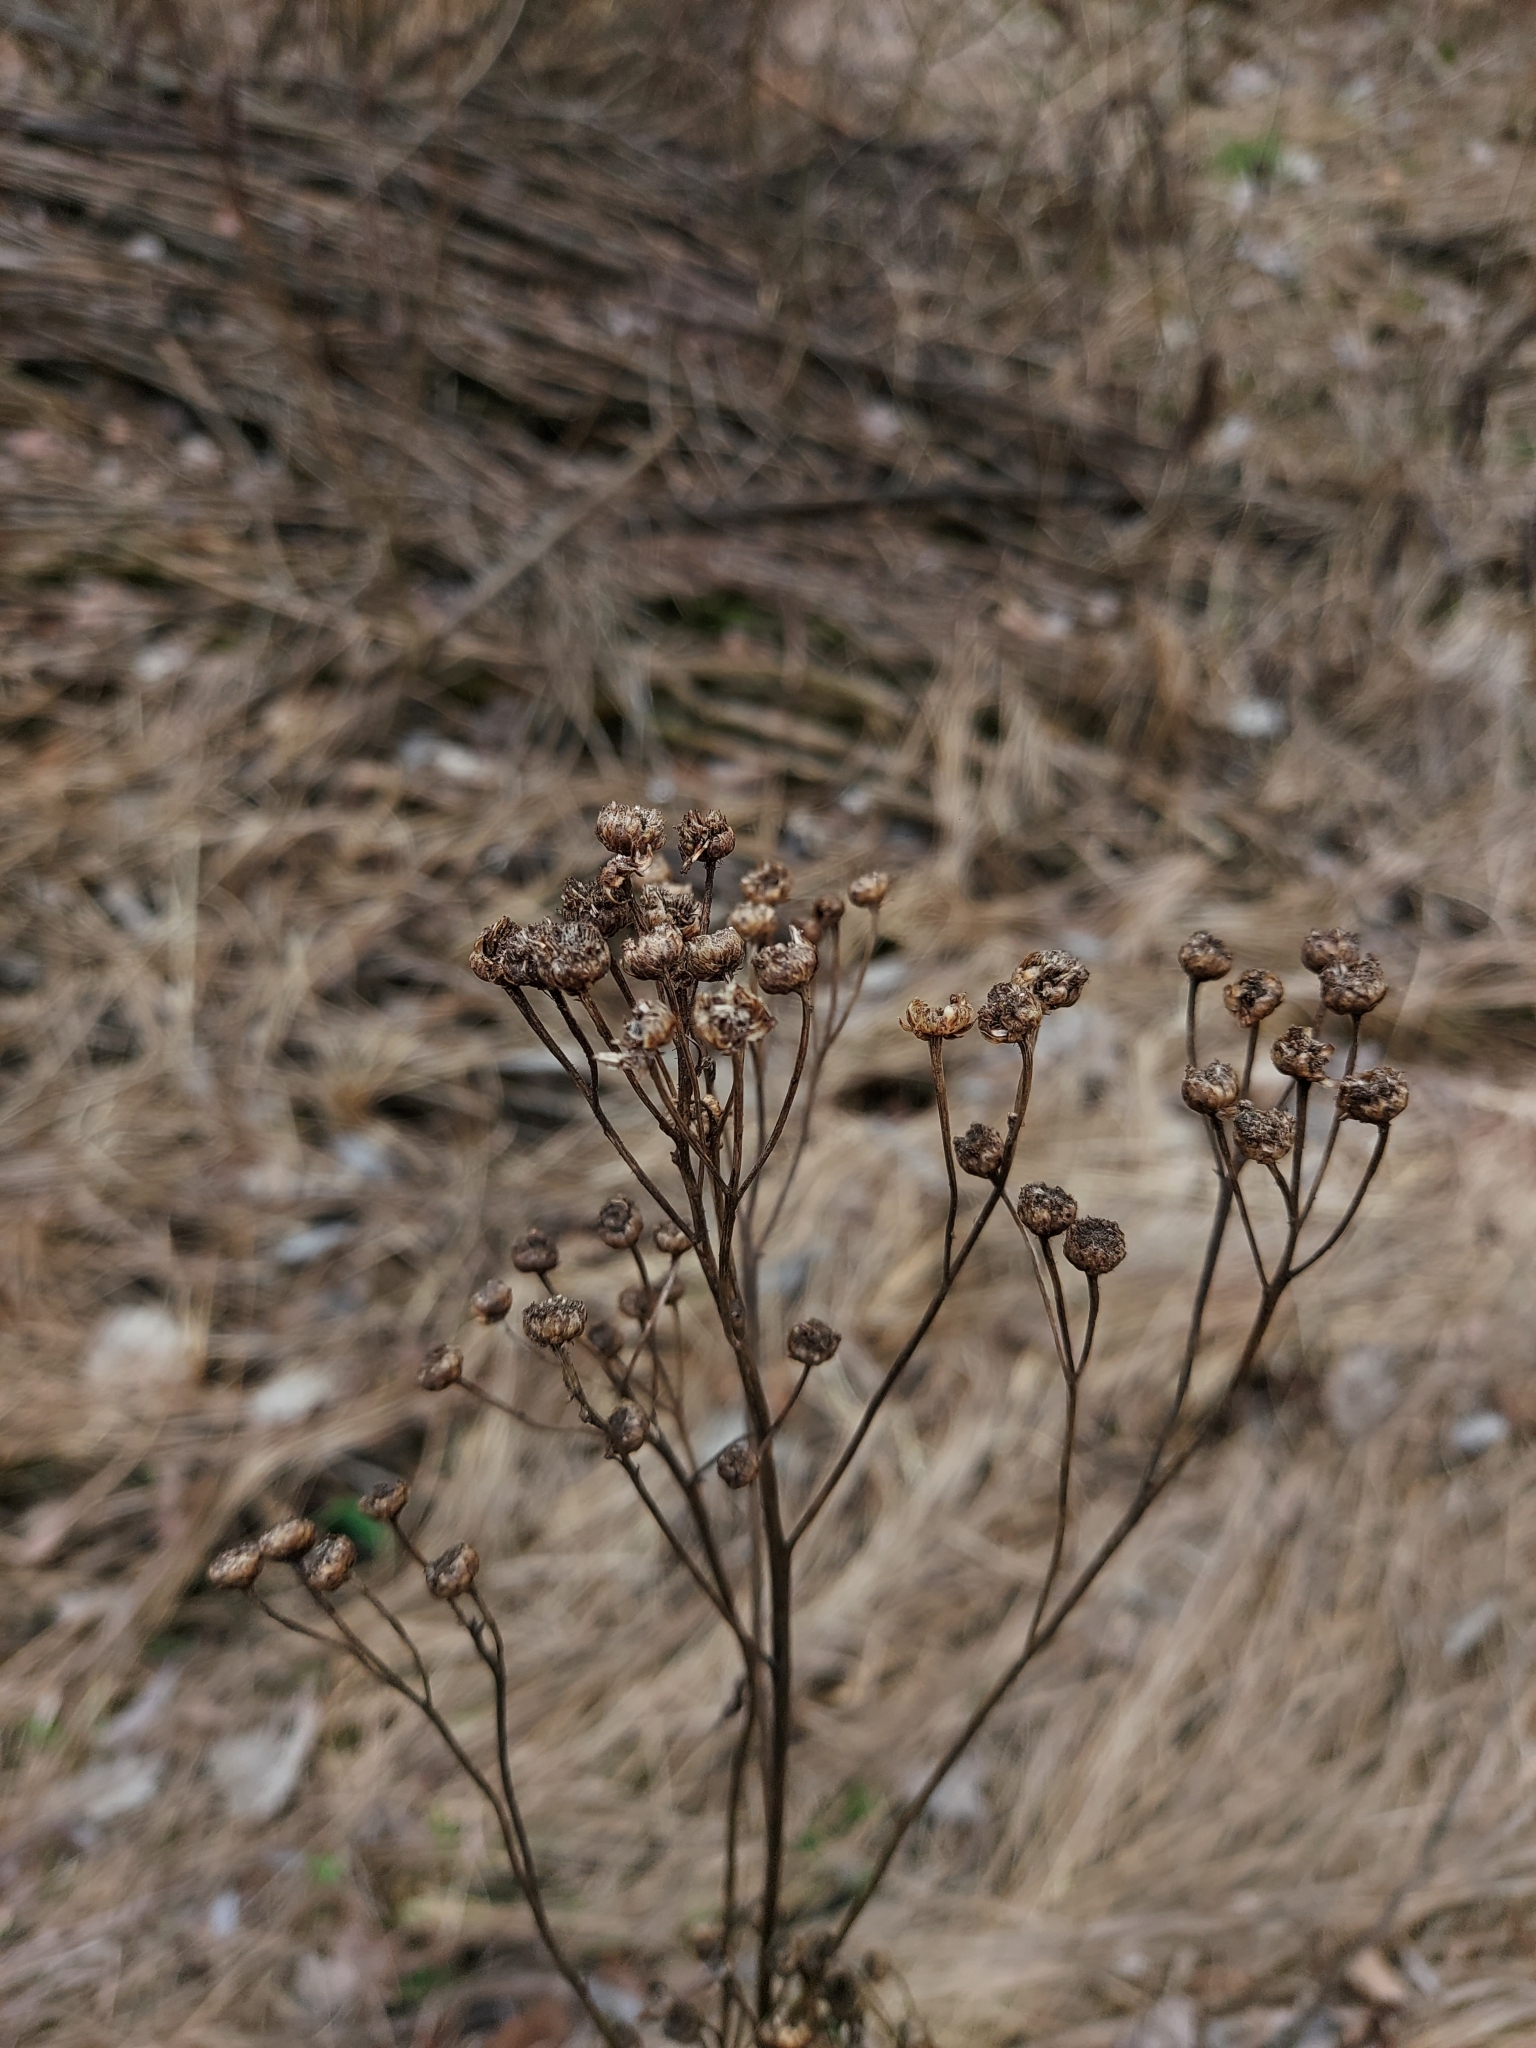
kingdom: Plantae
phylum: Tracheophyta
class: Magnoliopsida
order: Asterales
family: Asteraceae
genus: Tanacetum
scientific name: Tanacetum vulgare
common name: Common tansy
